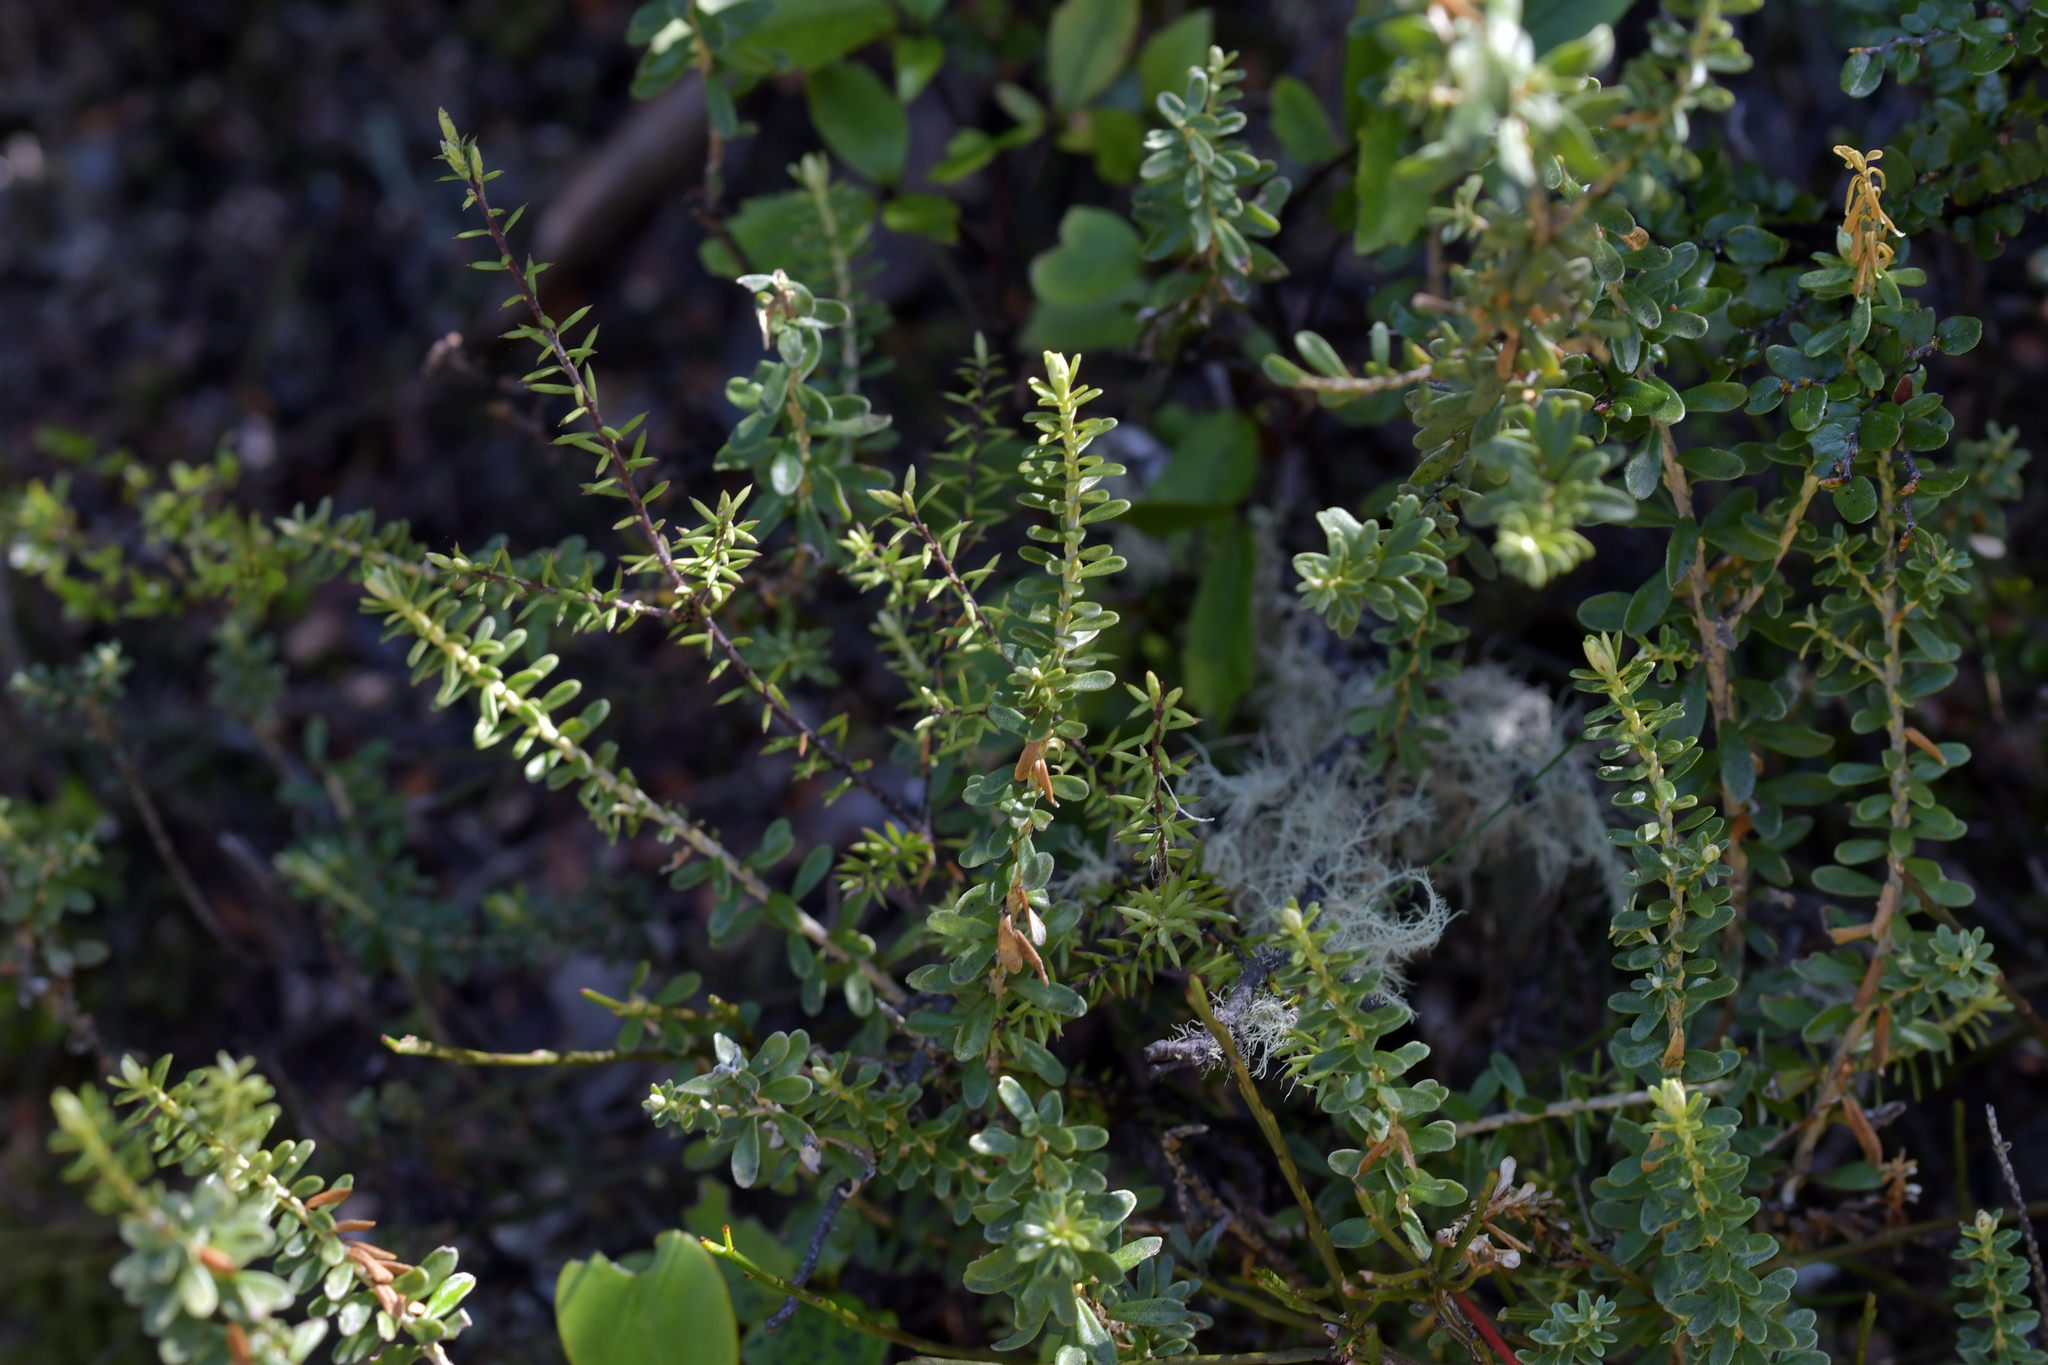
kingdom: Plantae
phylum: Tracheophyta
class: Magnoliopsida
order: Asterales
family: Asteraceae
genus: Ozothamnus
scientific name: Ozothamnus leptophyllus
